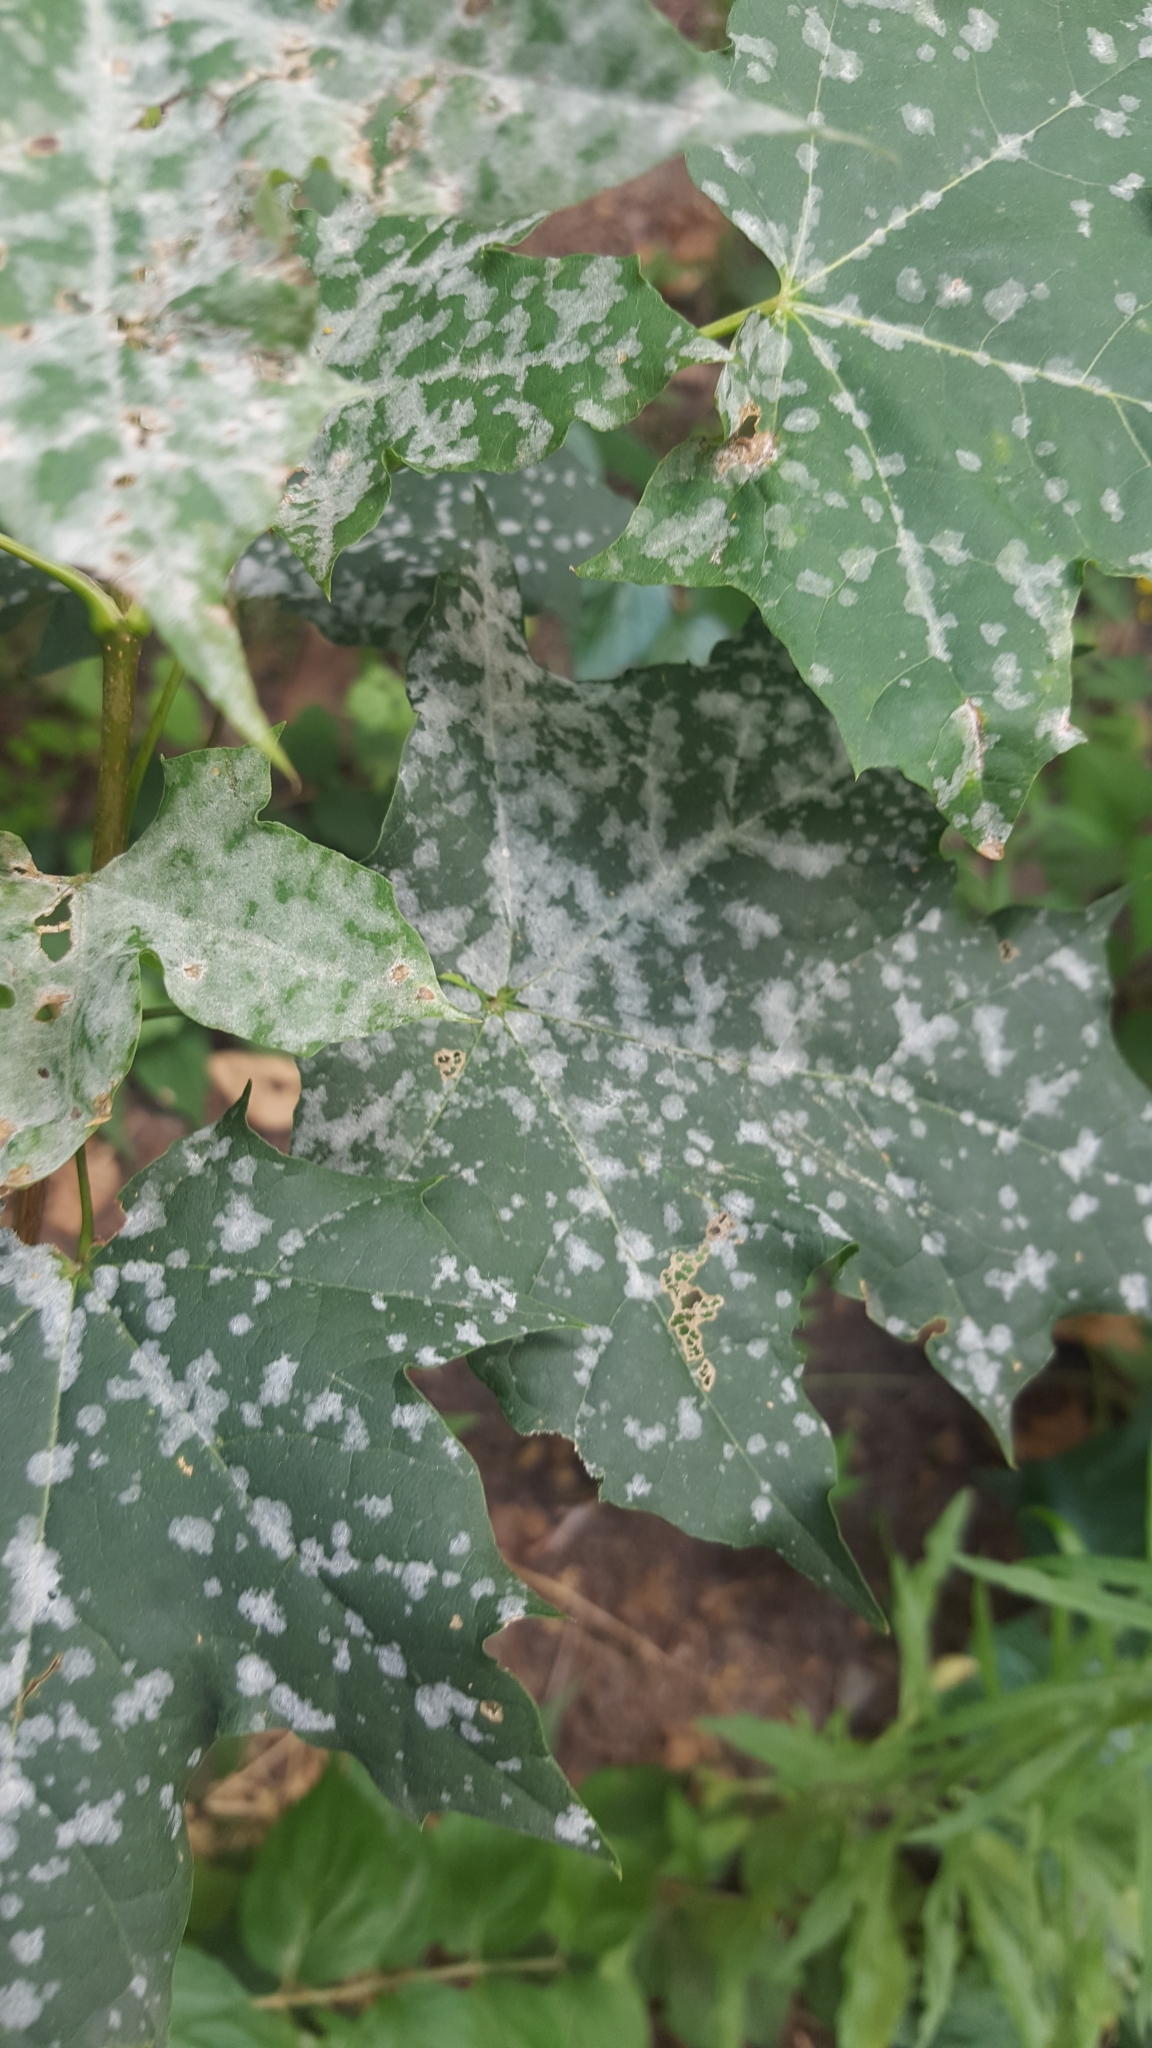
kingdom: Fungi
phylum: Ascomycota
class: Leotiomycetes
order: Helotiales
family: Erysiphaceae
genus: Sawadaea
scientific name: Sawadaea tulasnei
